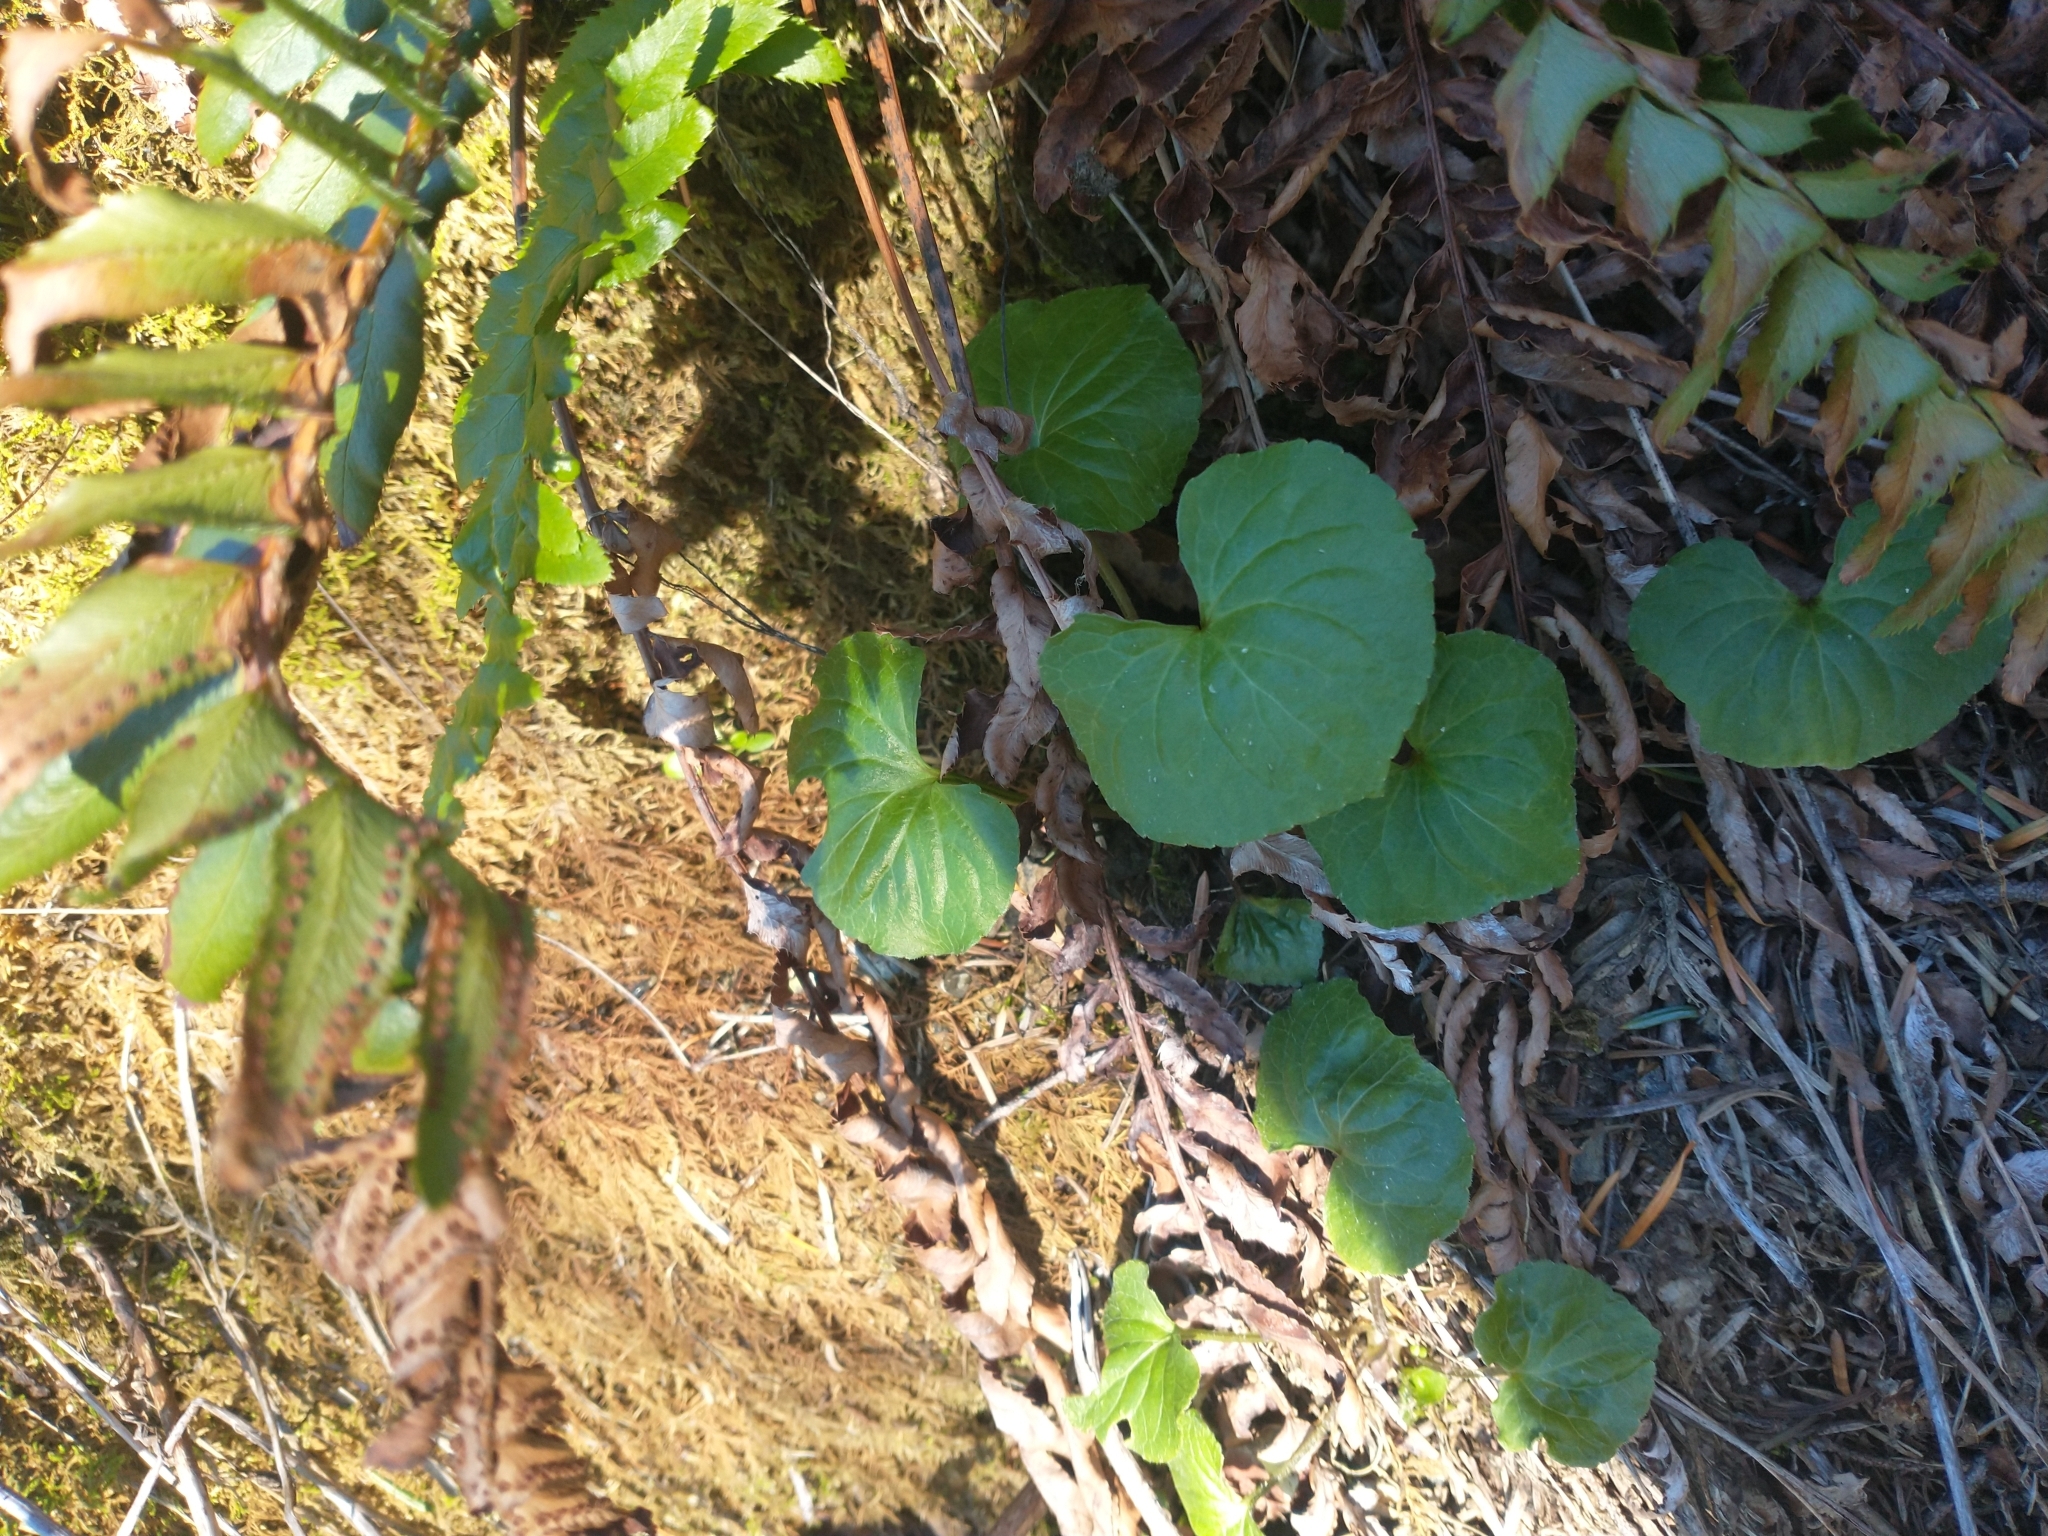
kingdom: Plantae
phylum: Tracheophyta
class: Magnoliopsida
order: Malpighiales
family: Violaceae
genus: Viola
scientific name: Viola glabella
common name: Stream violet
